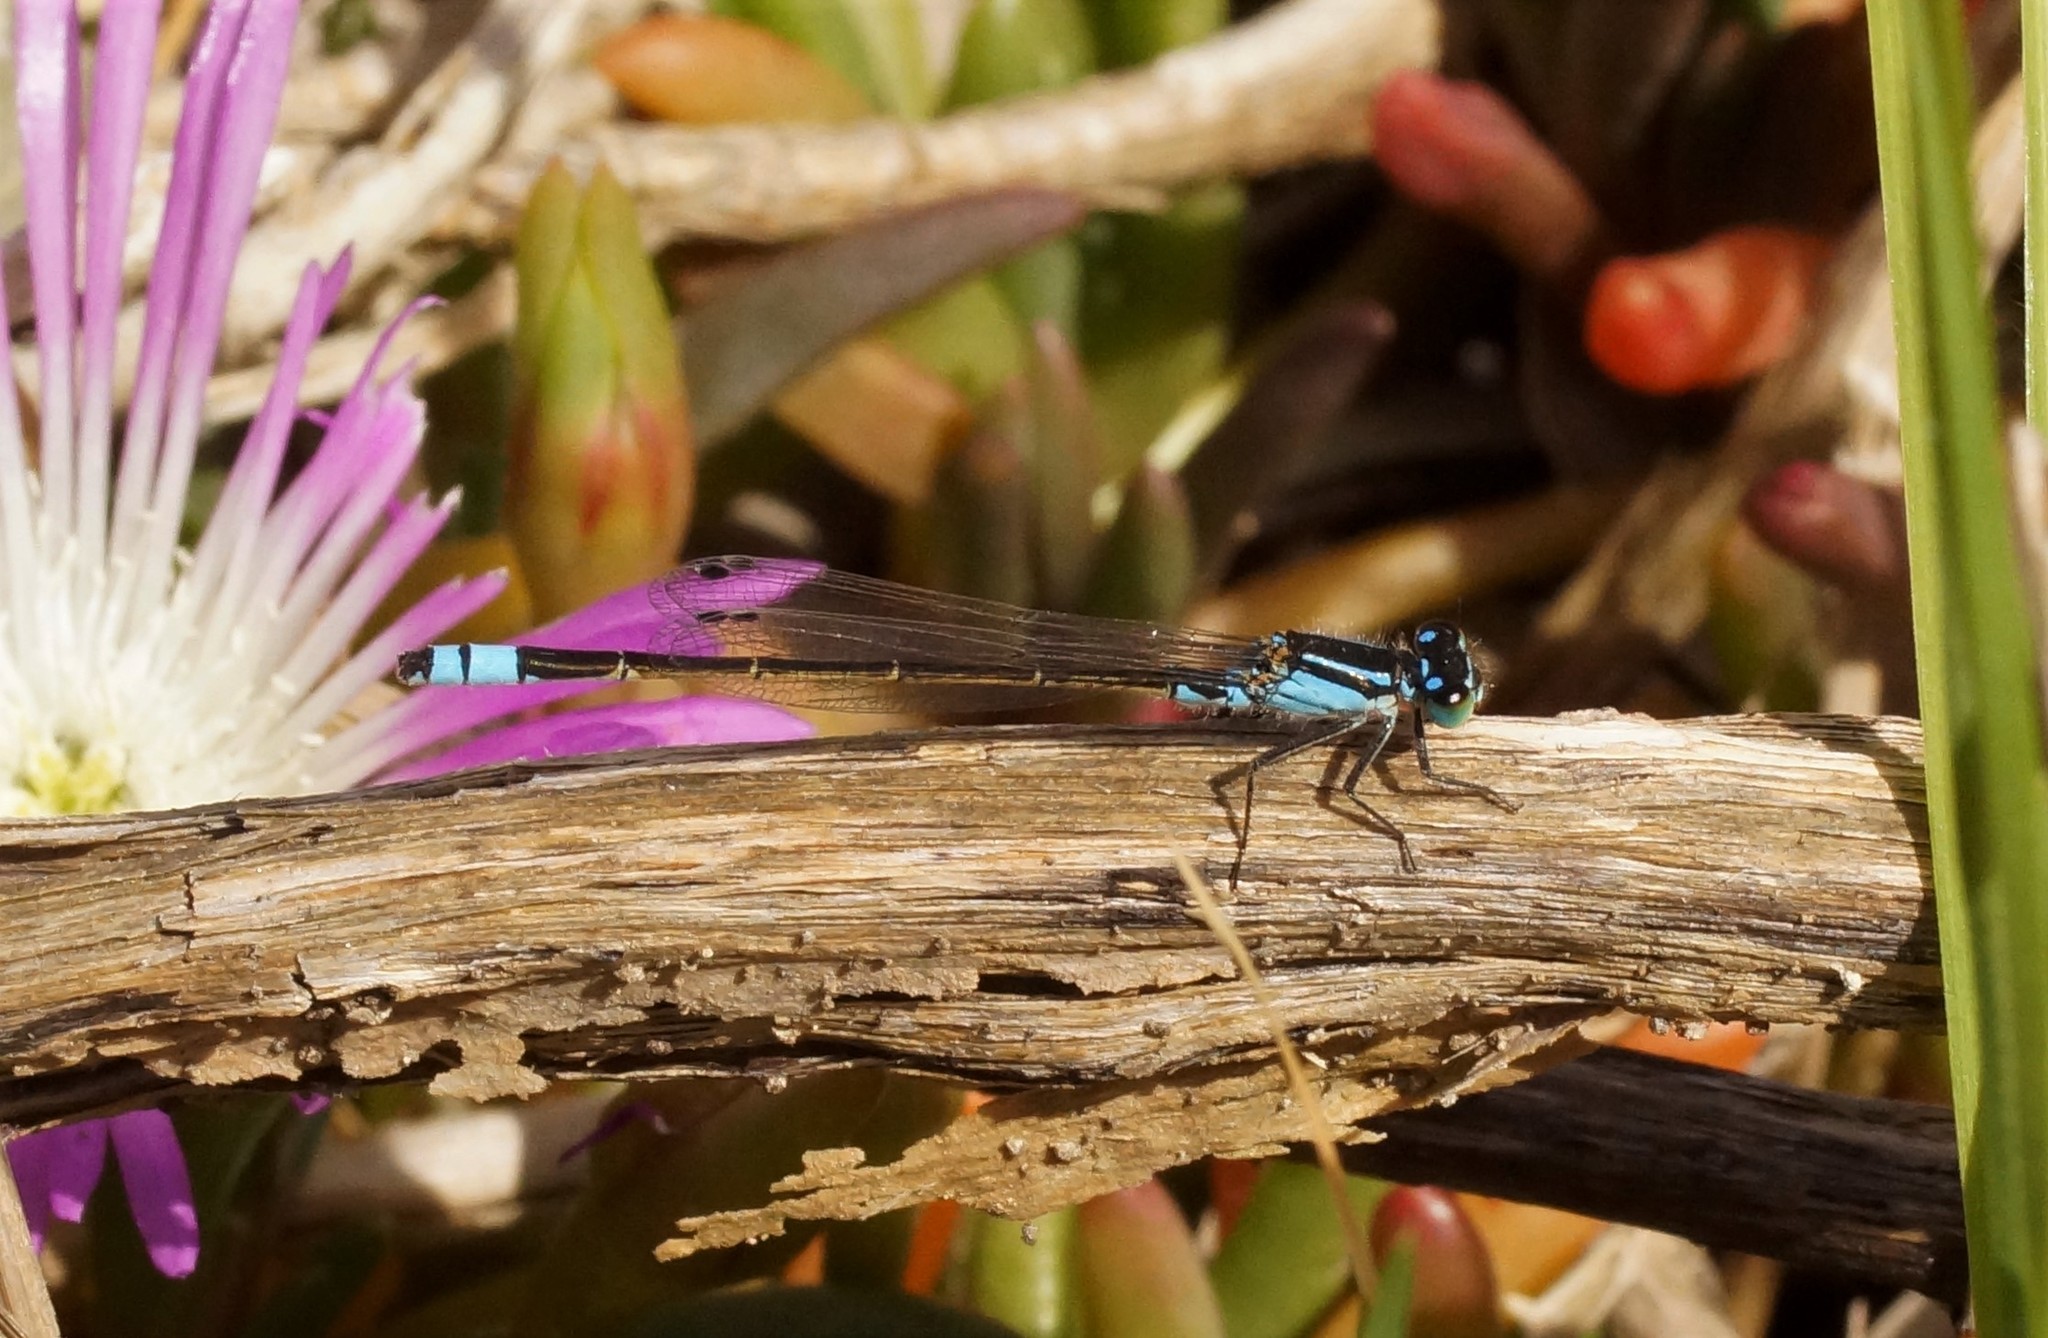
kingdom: Animalia
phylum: Arthropoda
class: Insecta
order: Odonata
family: Coenagrionidae
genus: Ischnura
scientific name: Ischnura heterosticta
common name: Common bluetail
